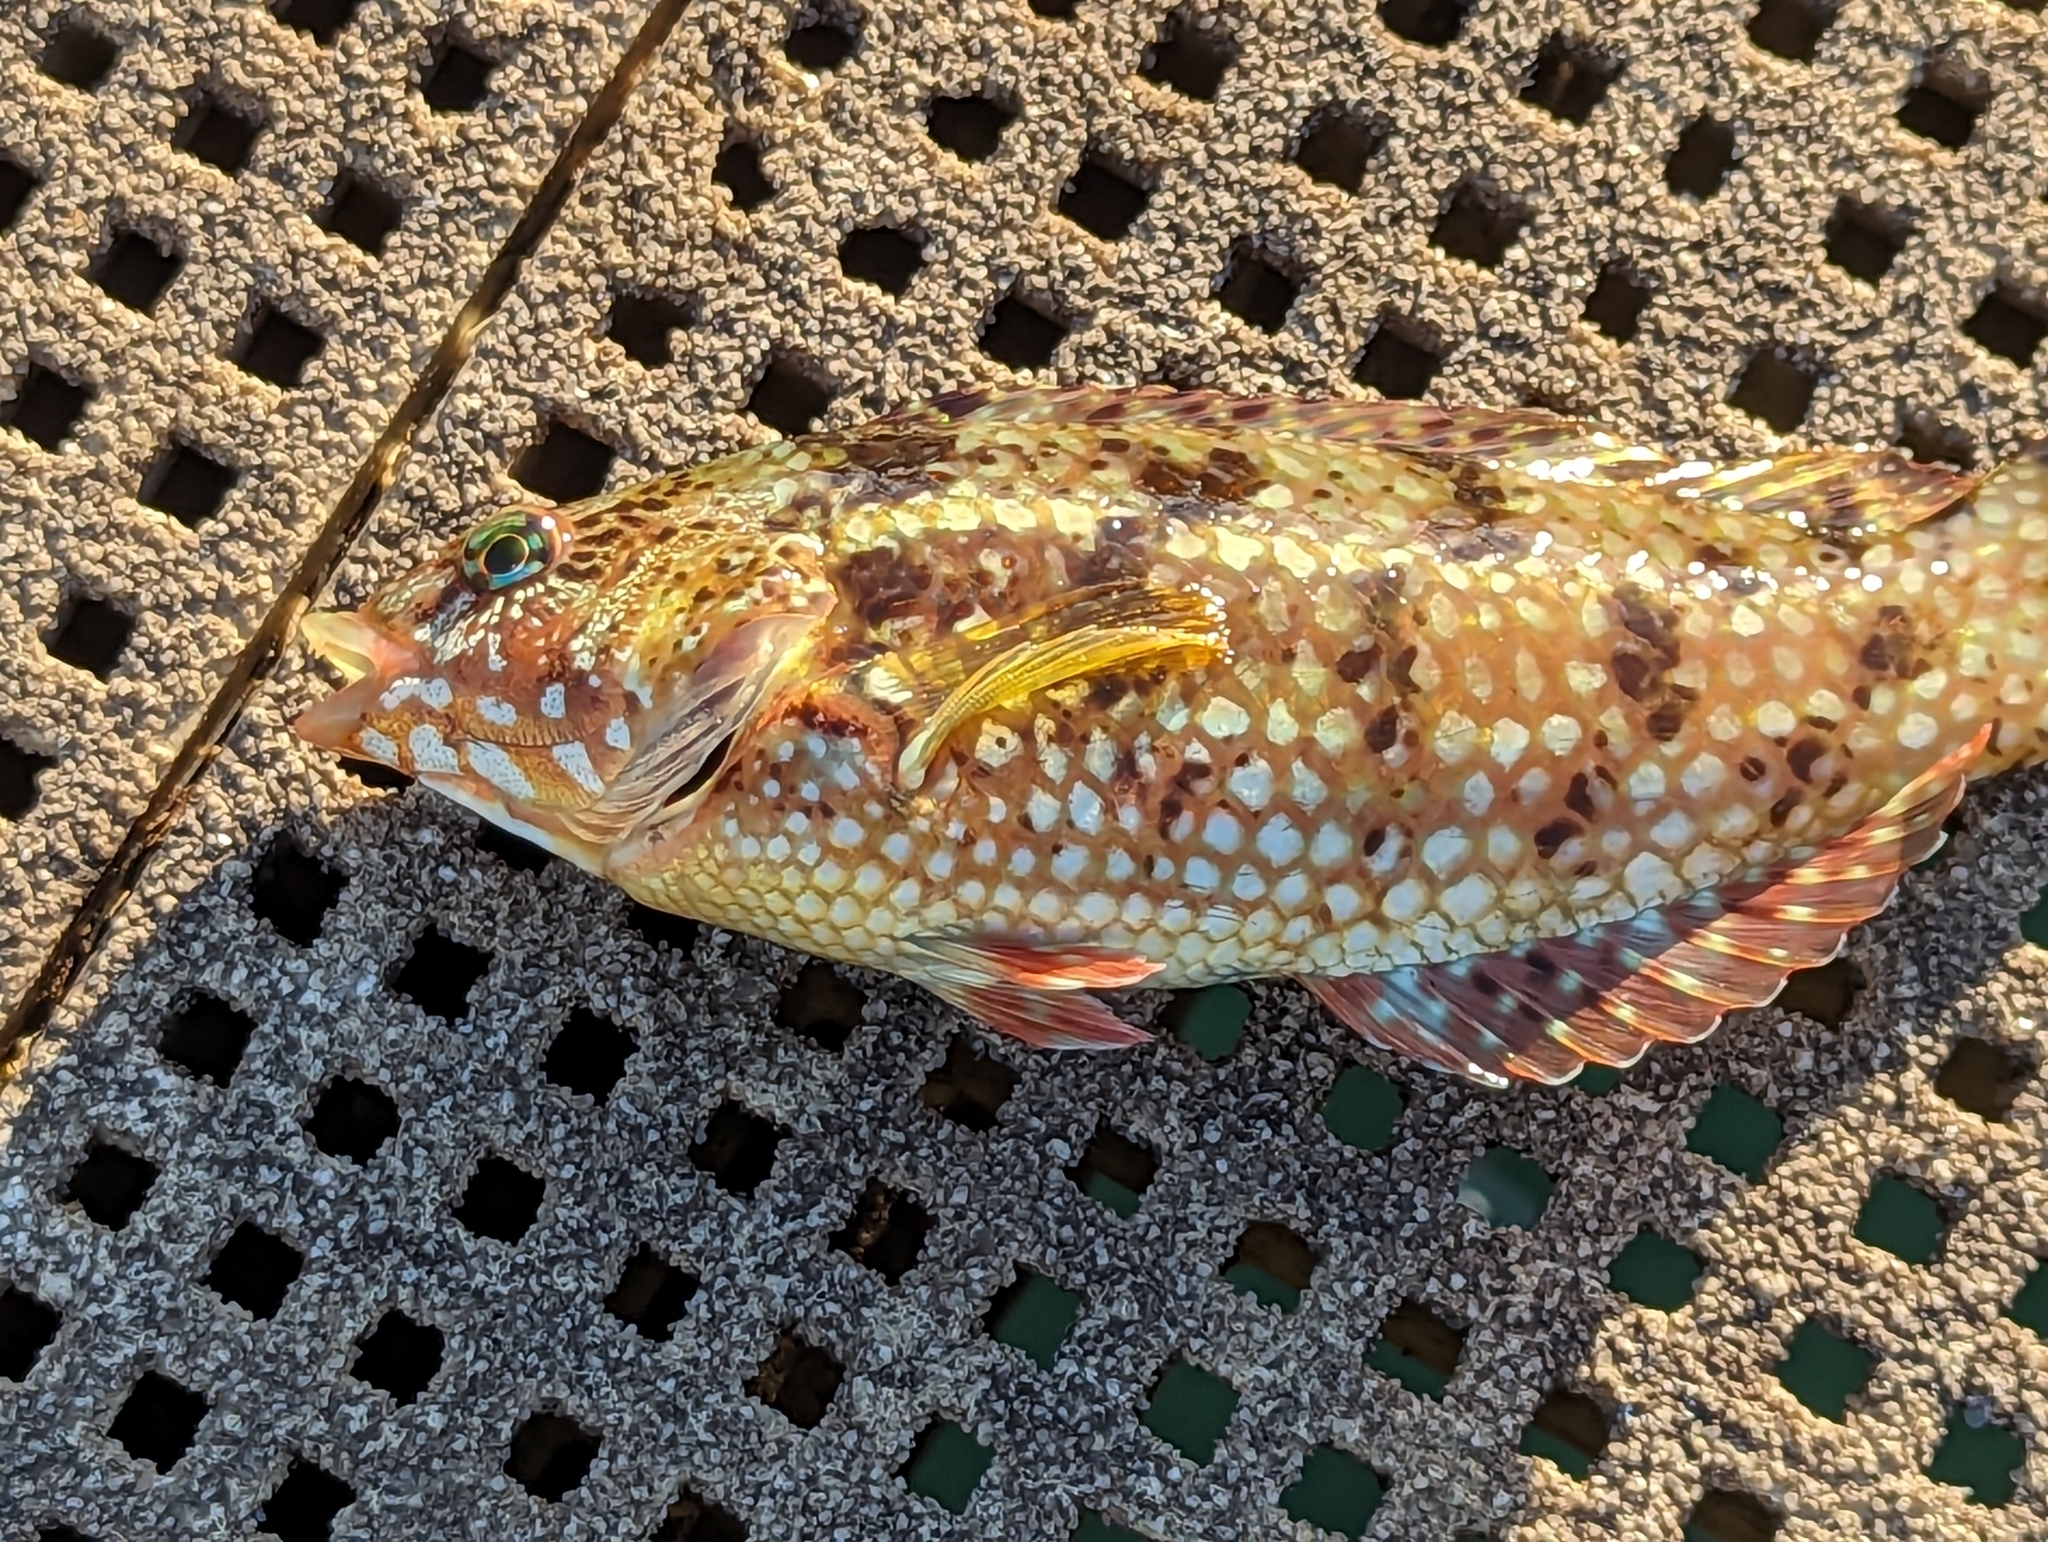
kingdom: Animalia
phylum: Chordata
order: Perciformes
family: Labridae
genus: Notolabrus
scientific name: Notolabrus parilus
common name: Brown spotted wrasse
